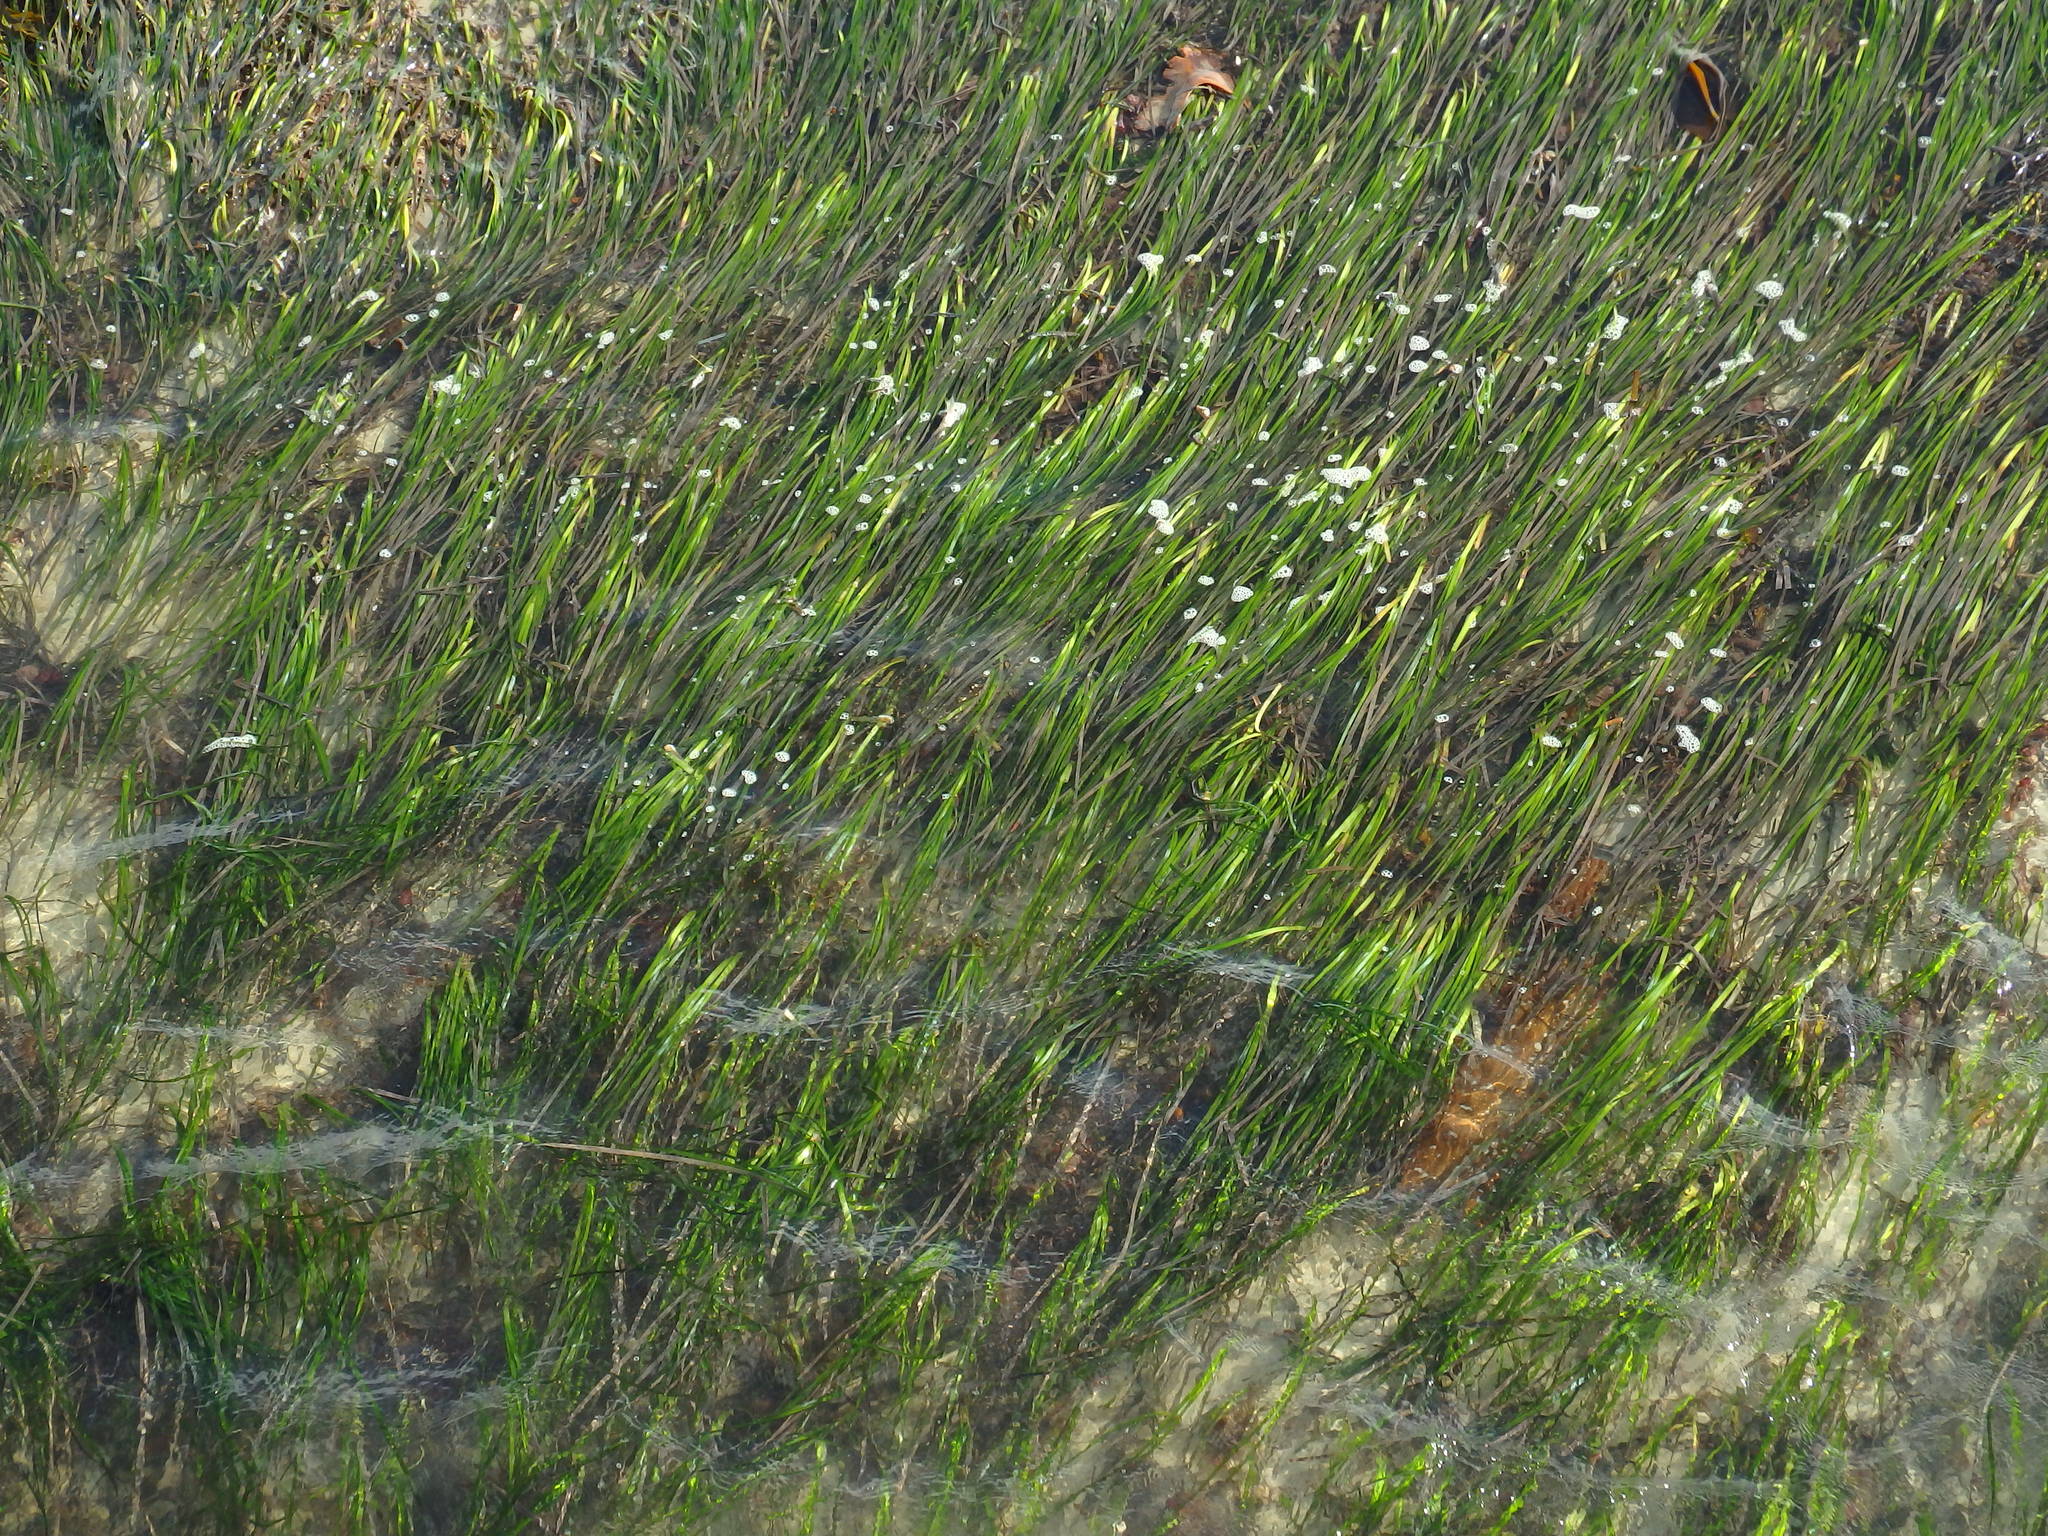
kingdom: Plantae
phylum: Tracheophyta
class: Liliopsida
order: Alismatales
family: Zosteraceae
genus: Zostera
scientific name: Zostera marina
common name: Eelgrass
